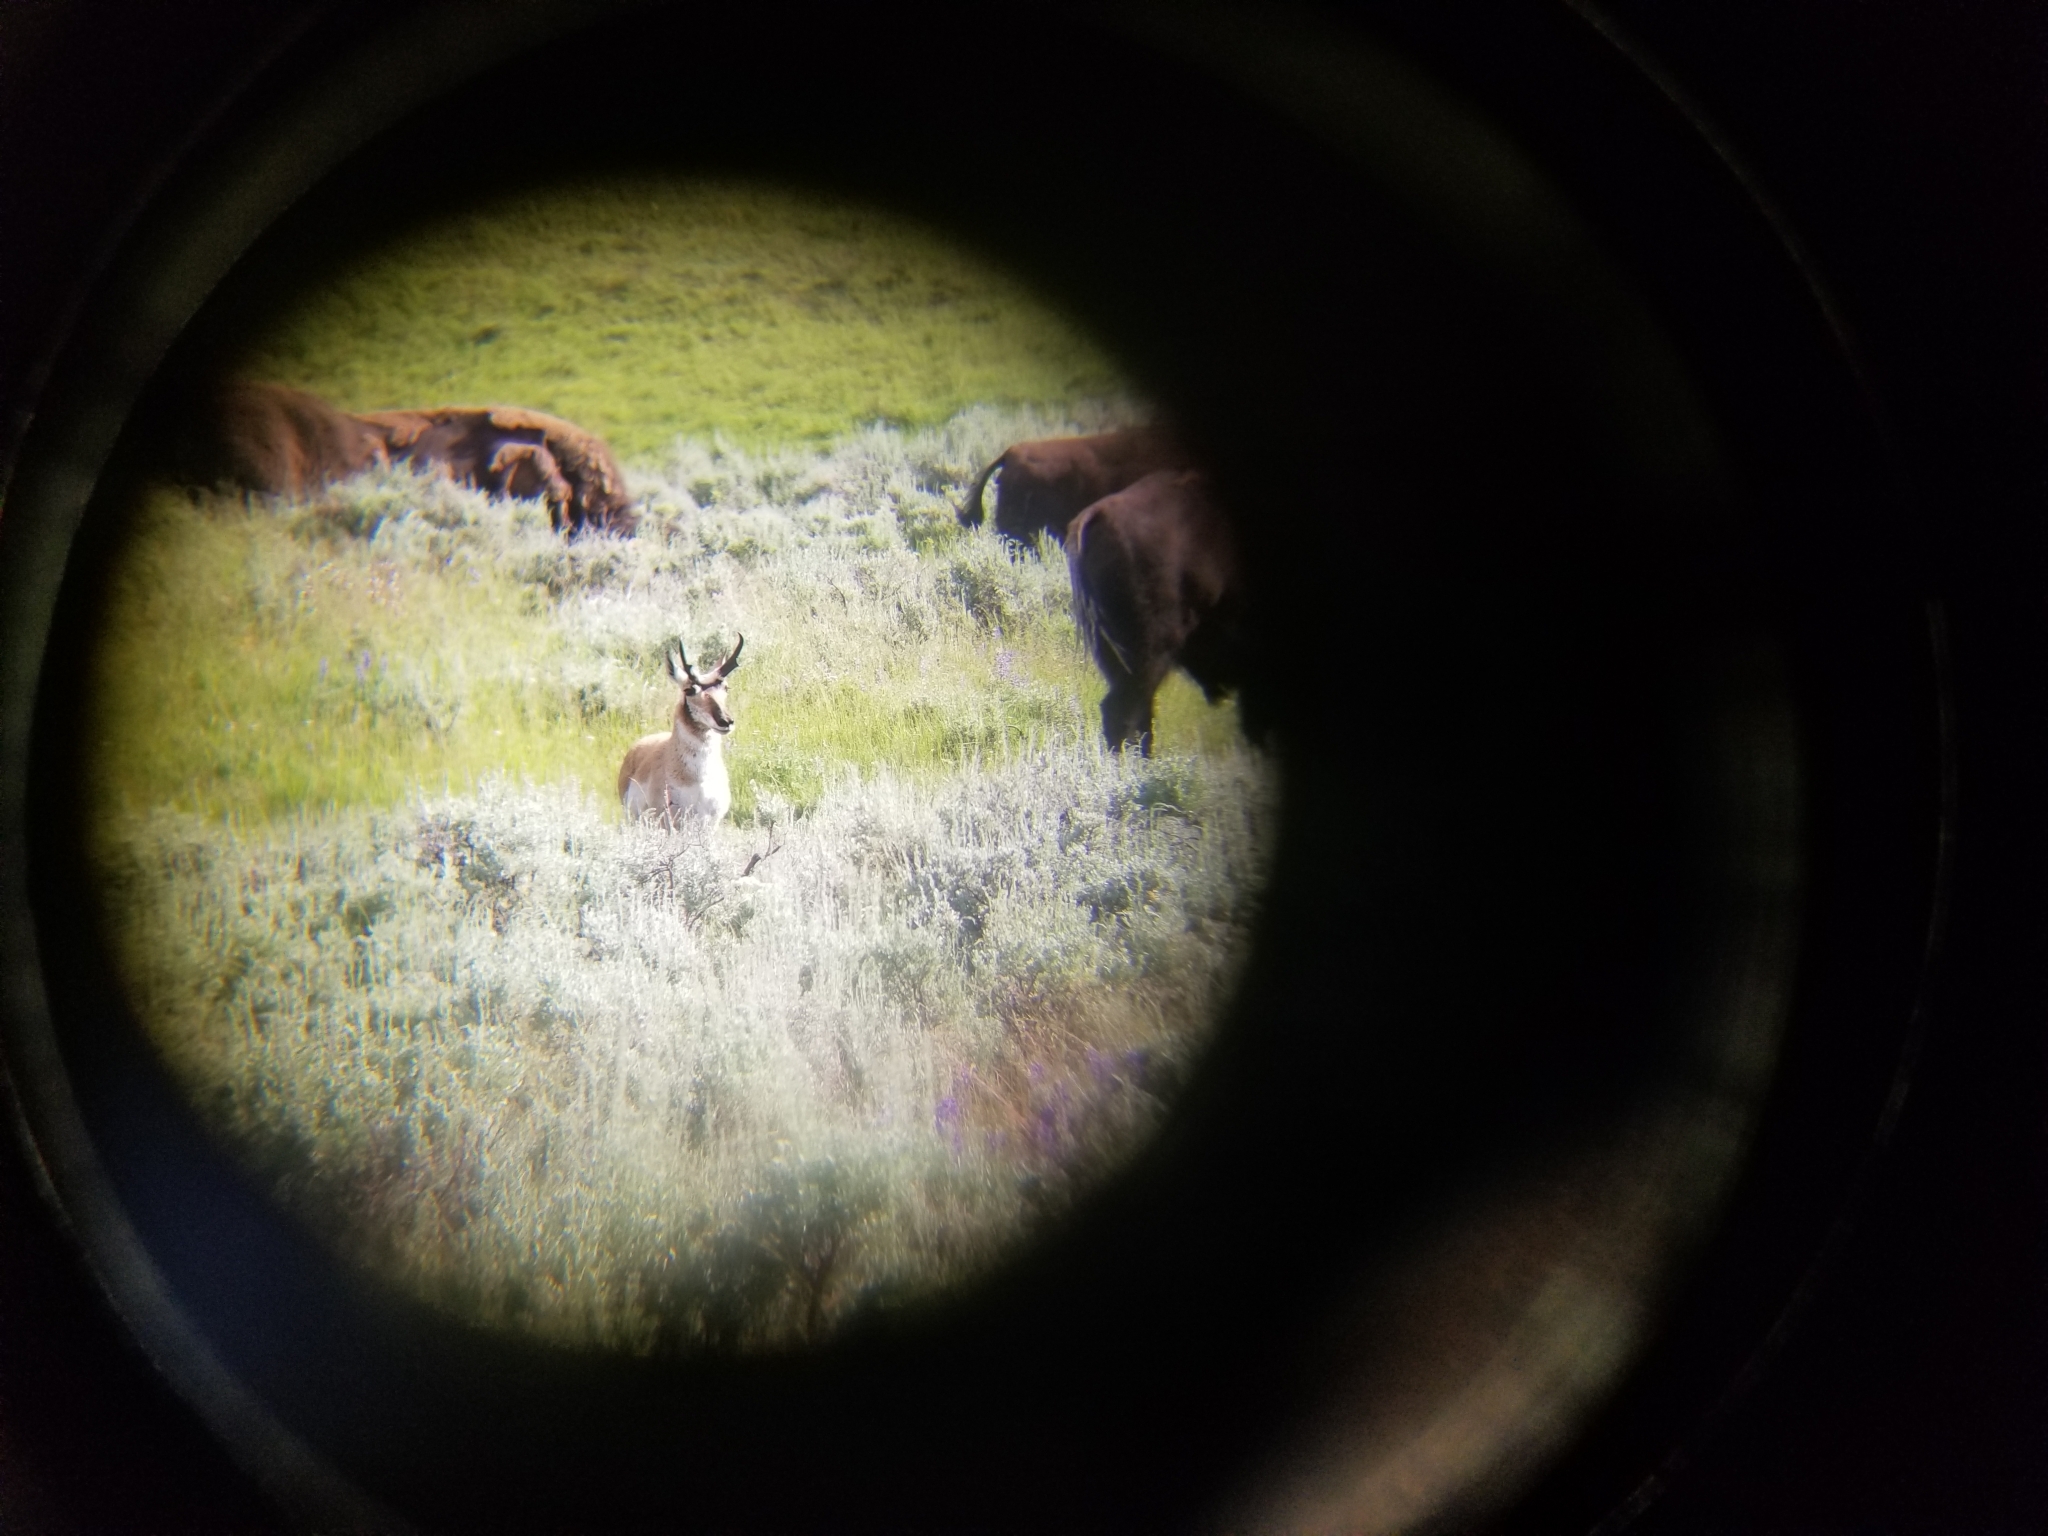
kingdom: Animalia
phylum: Chordata
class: Mammalia
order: Artiodactyla
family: Antilocapridae
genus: Antilocapra
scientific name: Antilocapra americana
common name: Pronghorn
